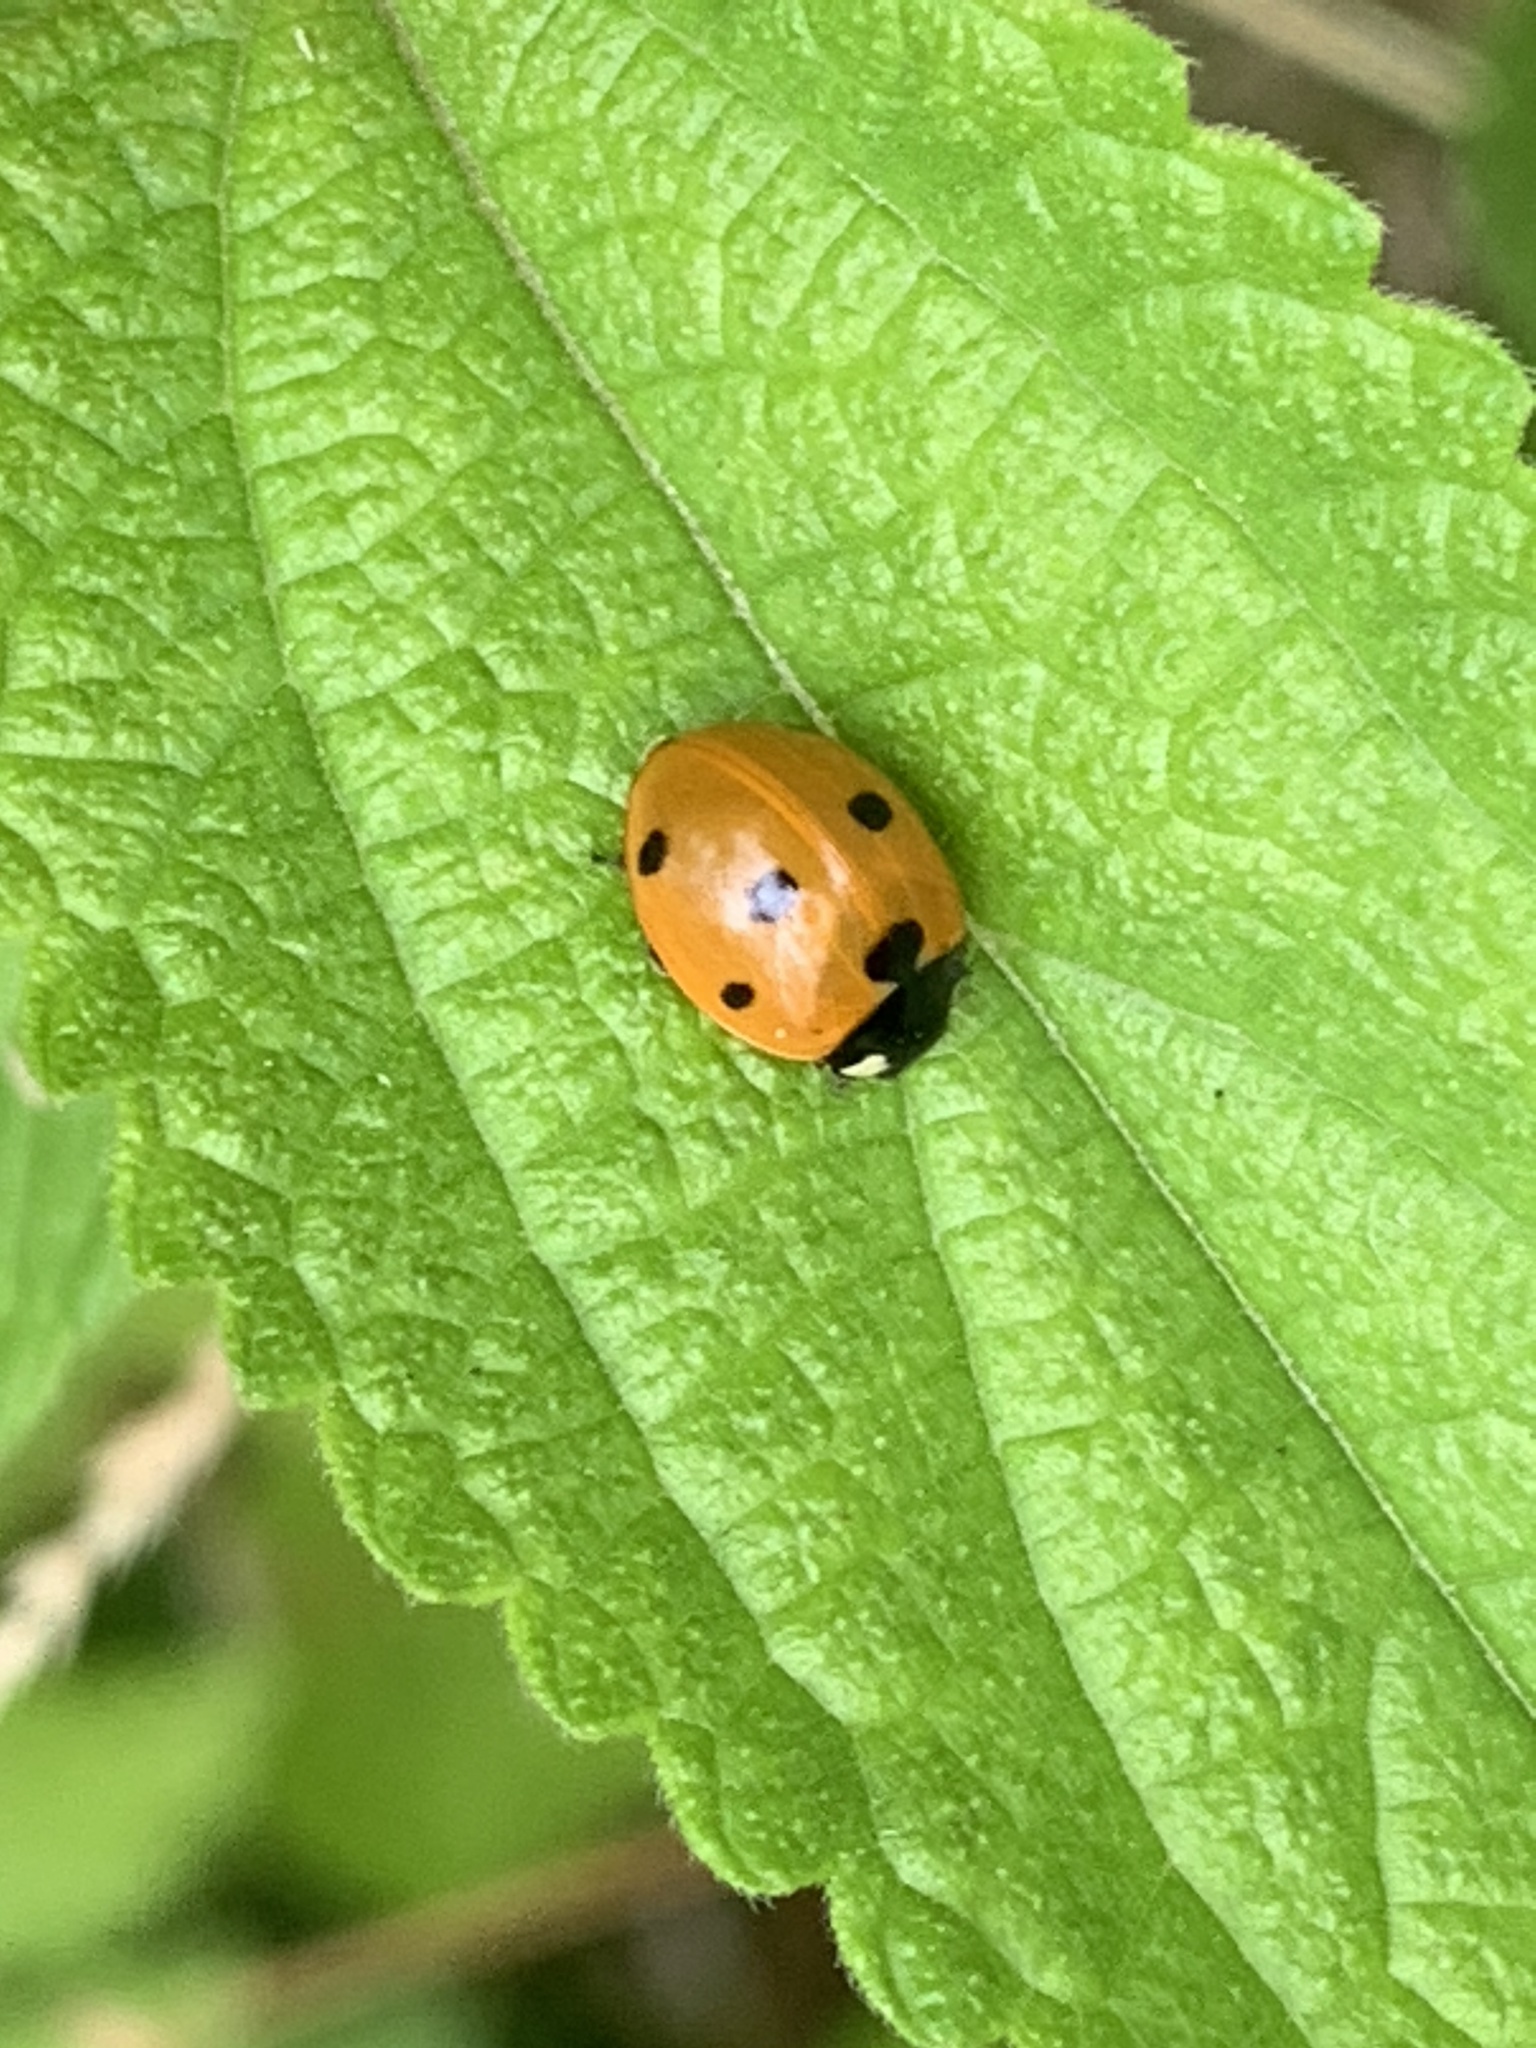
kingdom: Animalia
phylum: Arthropoda
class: Insecta
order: Coleoptera
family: Coccinellidae
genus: Coccinella
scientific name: Coccinella septempunctata
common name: Sevenspotted lady beetle
